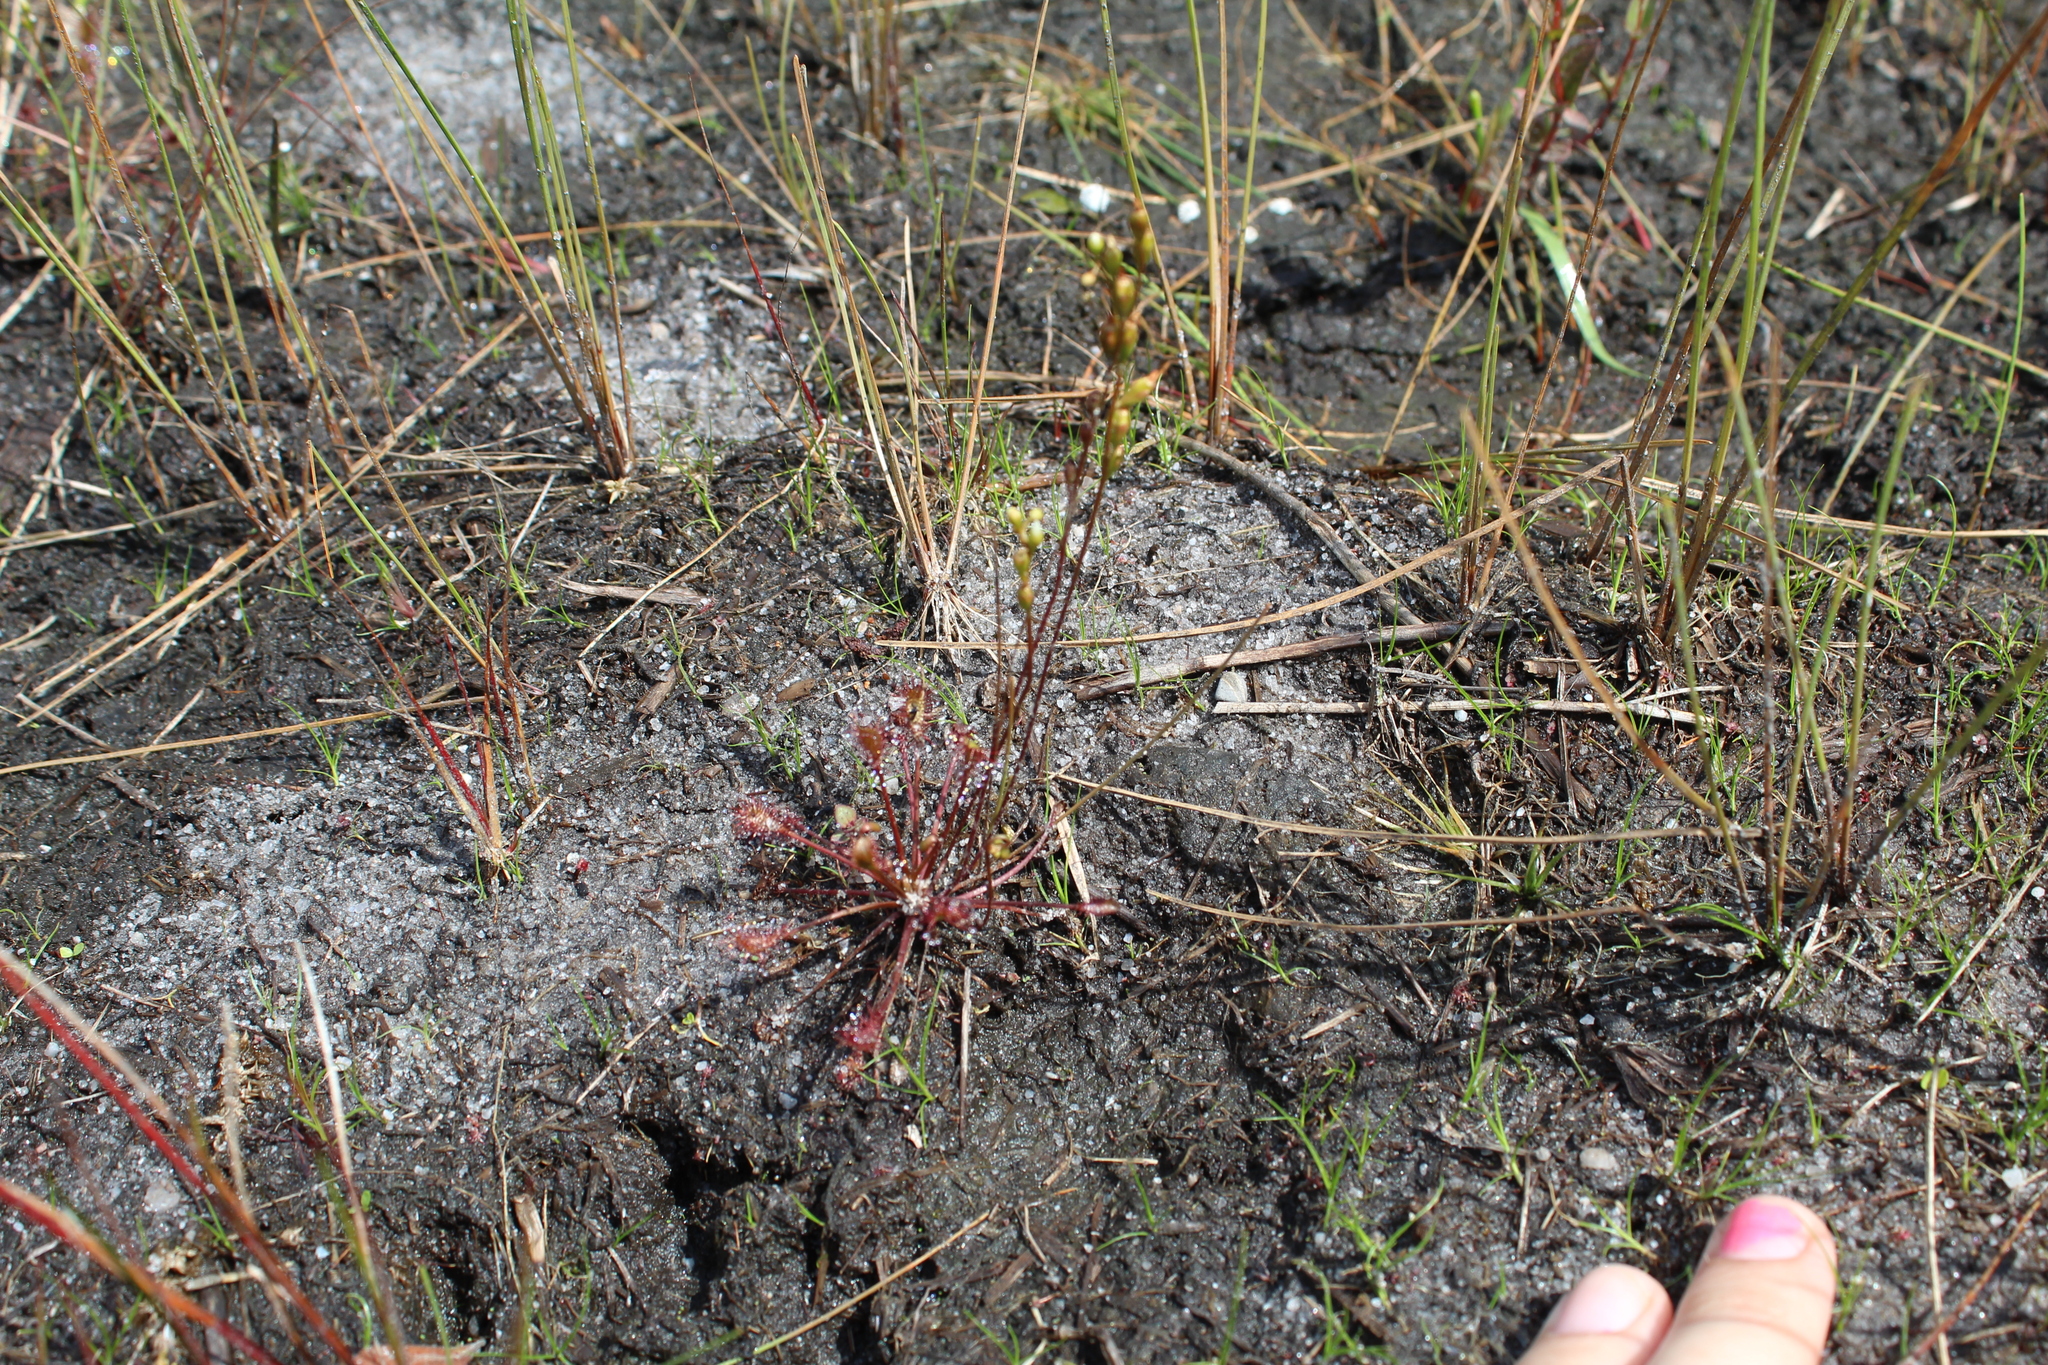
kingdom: Plantae
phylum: Tracheophyta
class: Magnoliopsida
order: Caryophyllales
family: Droseraceae
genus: Drosera
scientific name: Drosera intermedia
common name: Oblong-leaved sundew
